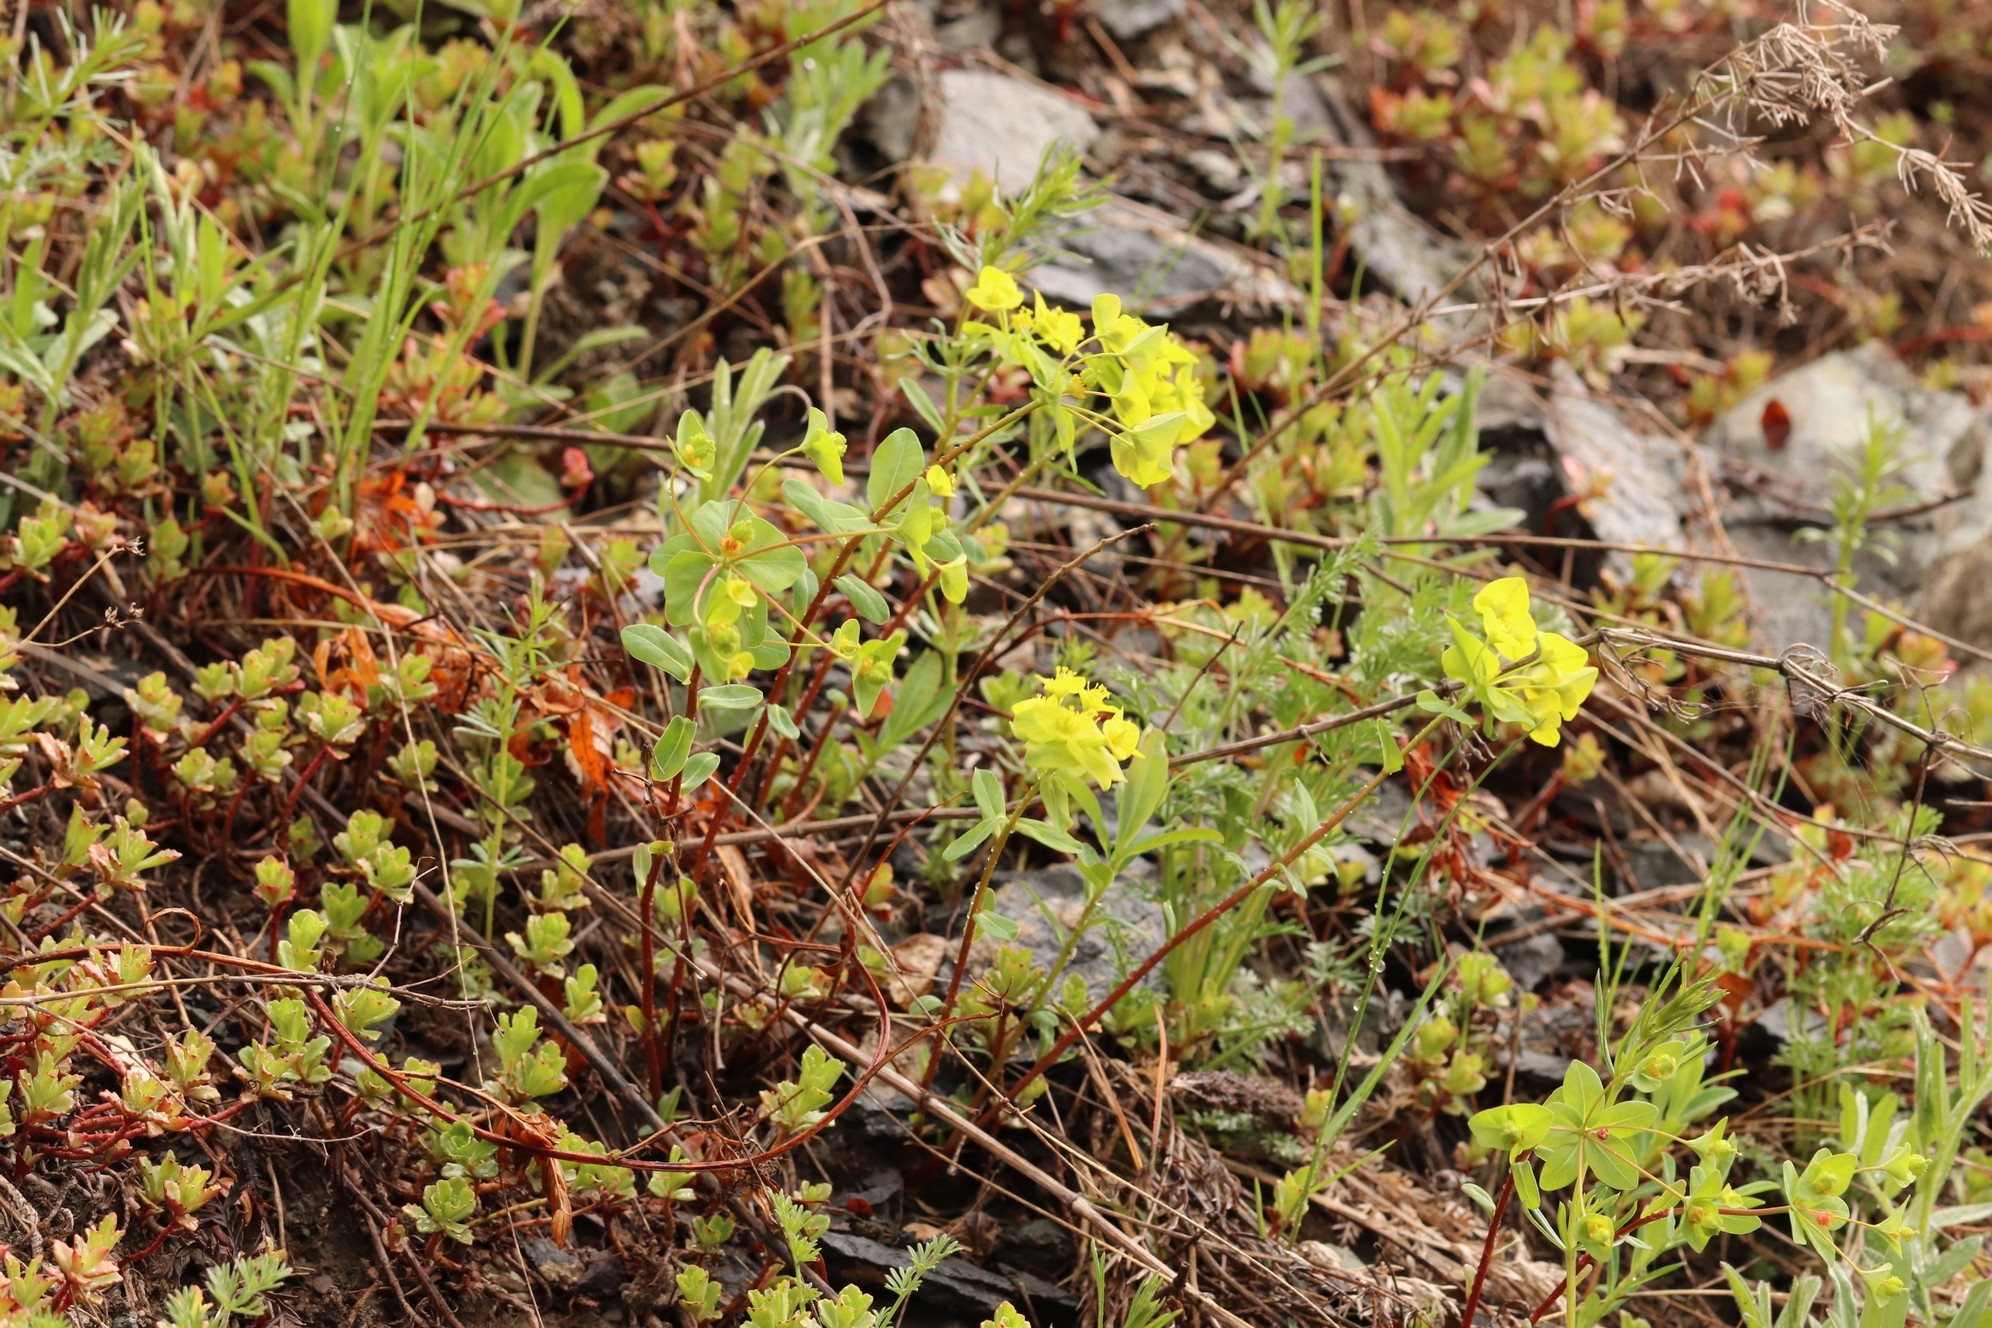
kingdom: Plantae
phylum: Tracheophyta
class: Magnoliopsida
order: Saxifragales
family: Crassulaceae
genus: Phedimus
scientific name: Phedimus hybridus
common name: Hybrid stonecrop
